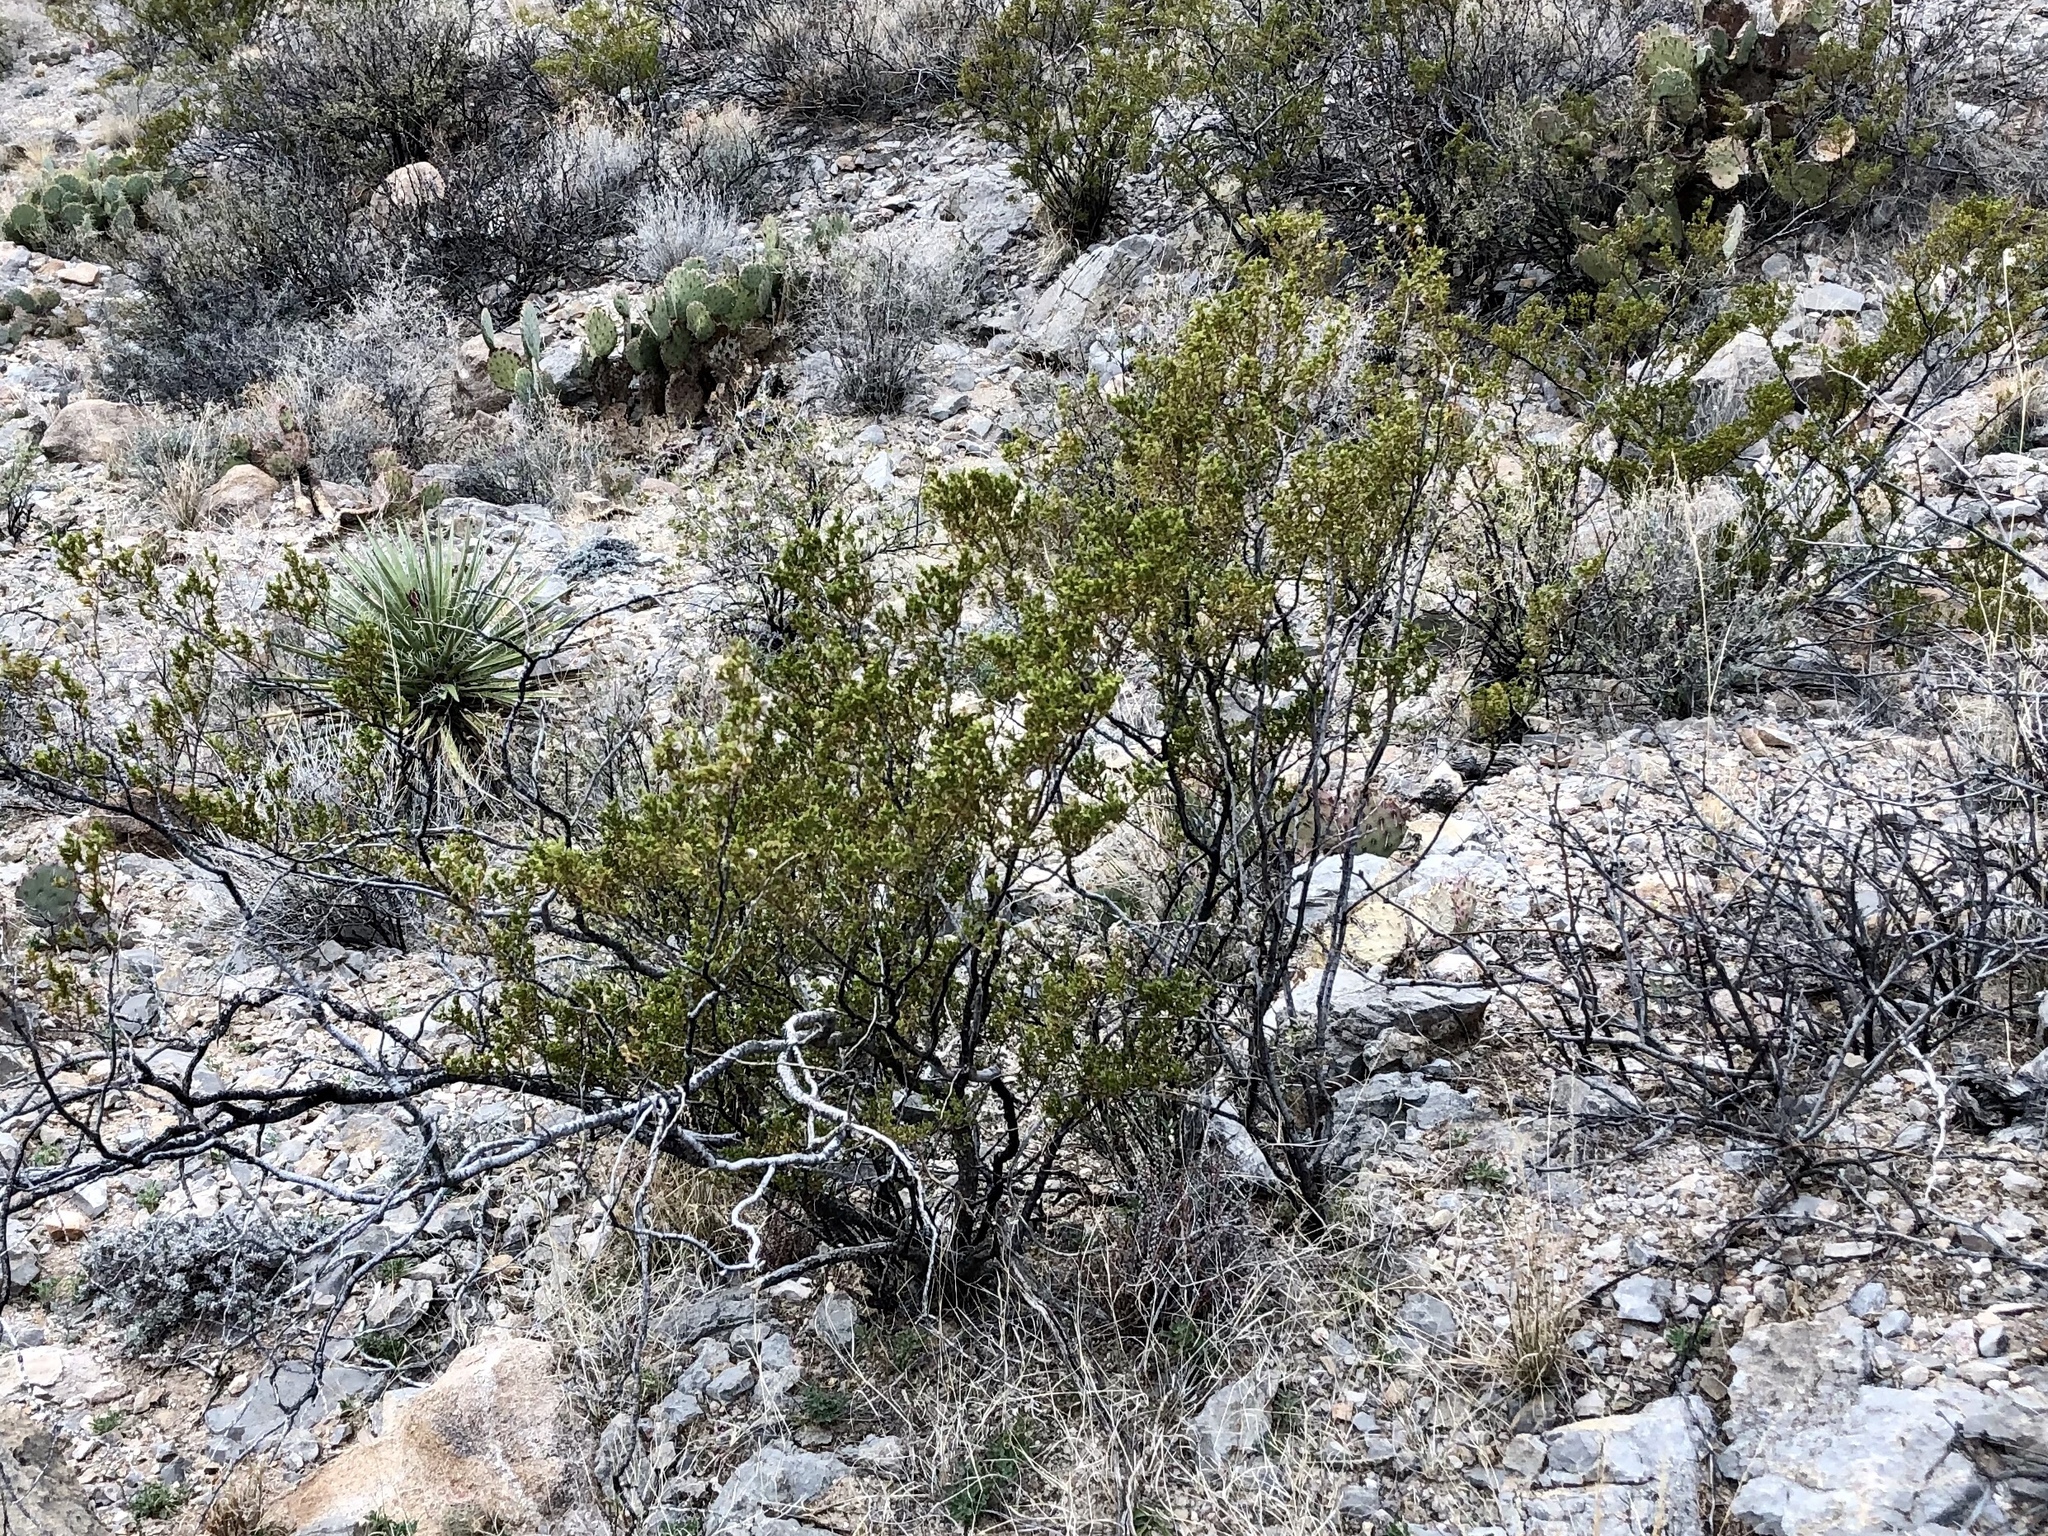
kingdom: Plantae
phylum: Tracheophyta
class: Magnoliopsida
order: Zygophyllales
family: Zygophyllaceae
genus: Larrea
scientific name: Larrea tridentata
